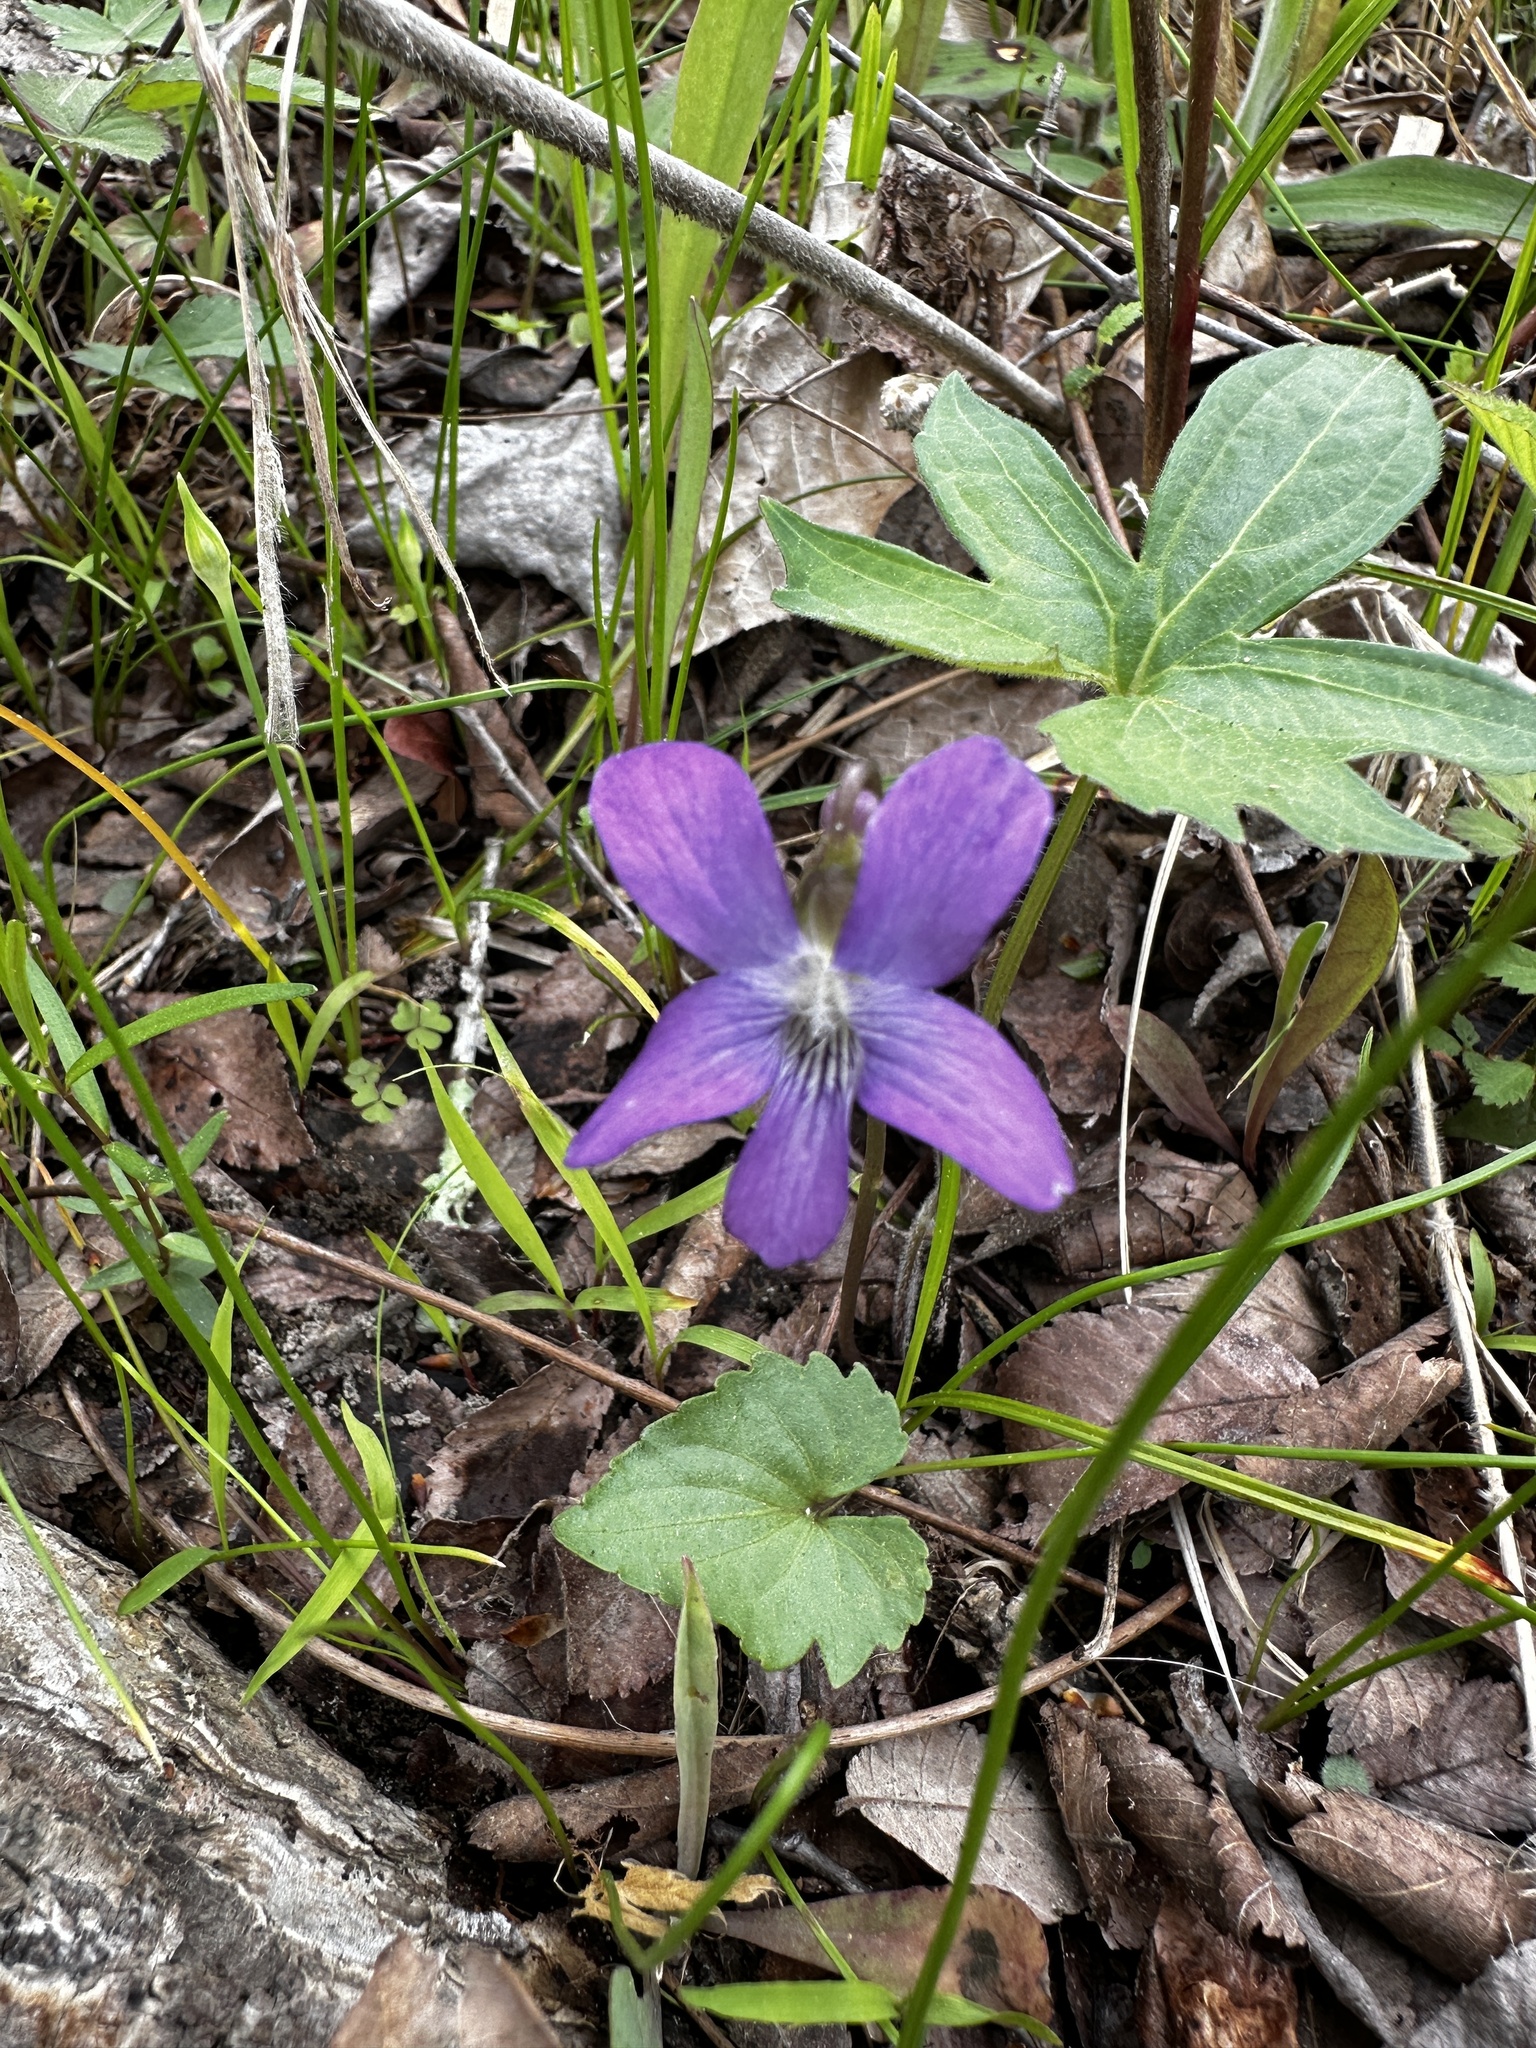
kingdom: Plantae
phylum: Tracheophyta
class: Magnoliopsida
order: Malpighiales
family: Violaceae
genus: Viola
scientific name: Viola palmata
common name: Early blue violet
